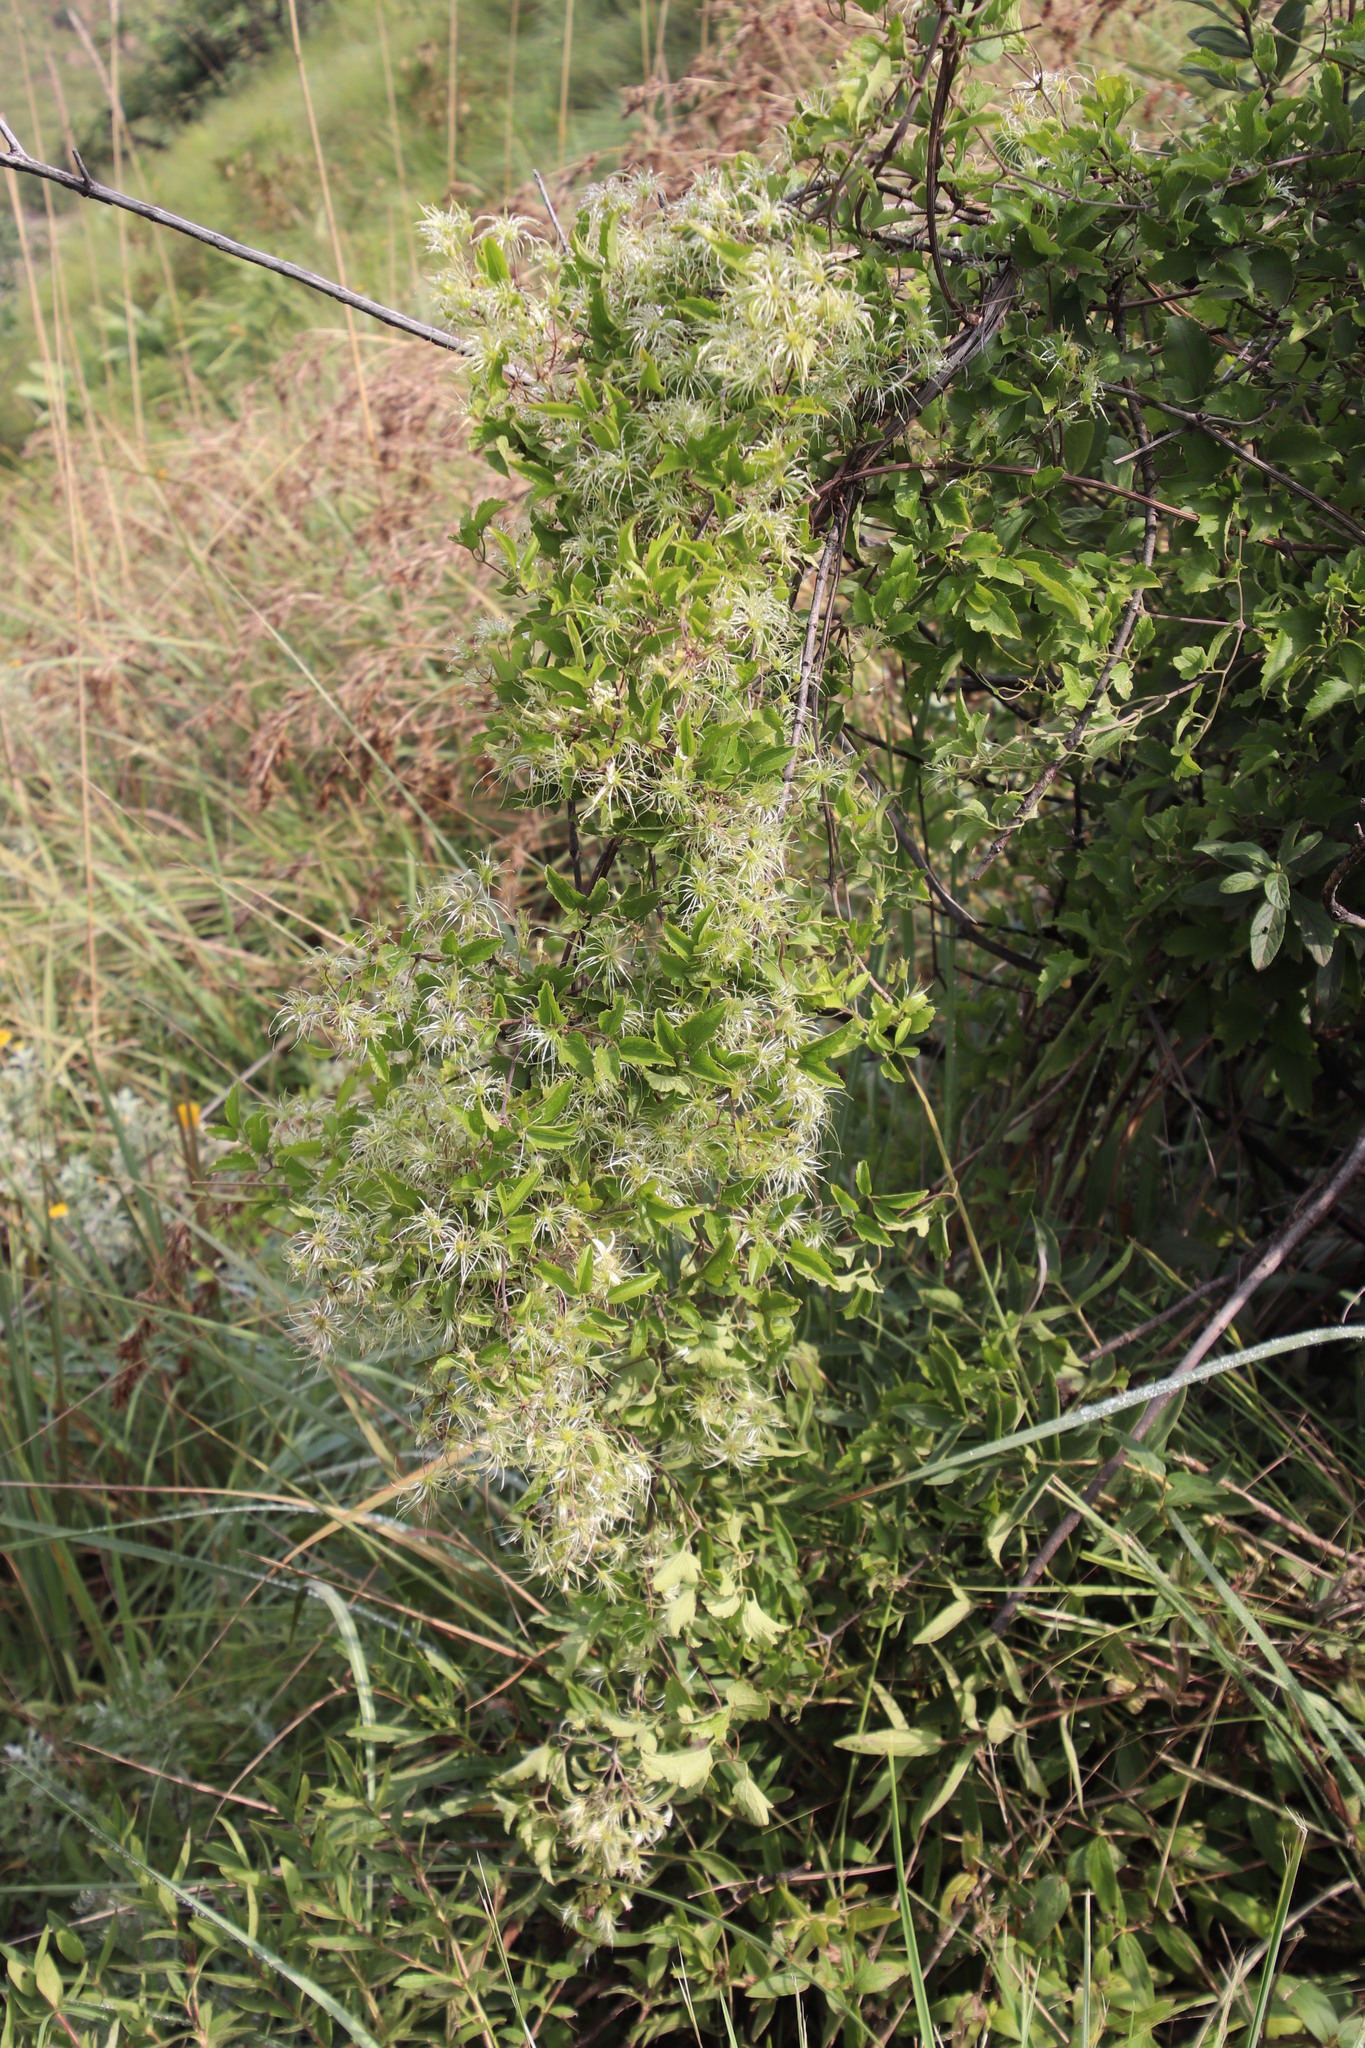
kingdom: Plantae
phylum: Tracheophyta
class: Magnoliopsida
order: Ranunculales
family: Ranunculaceae
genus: Clematis
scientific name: Clematis brachiata
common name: Traveler's-joy
